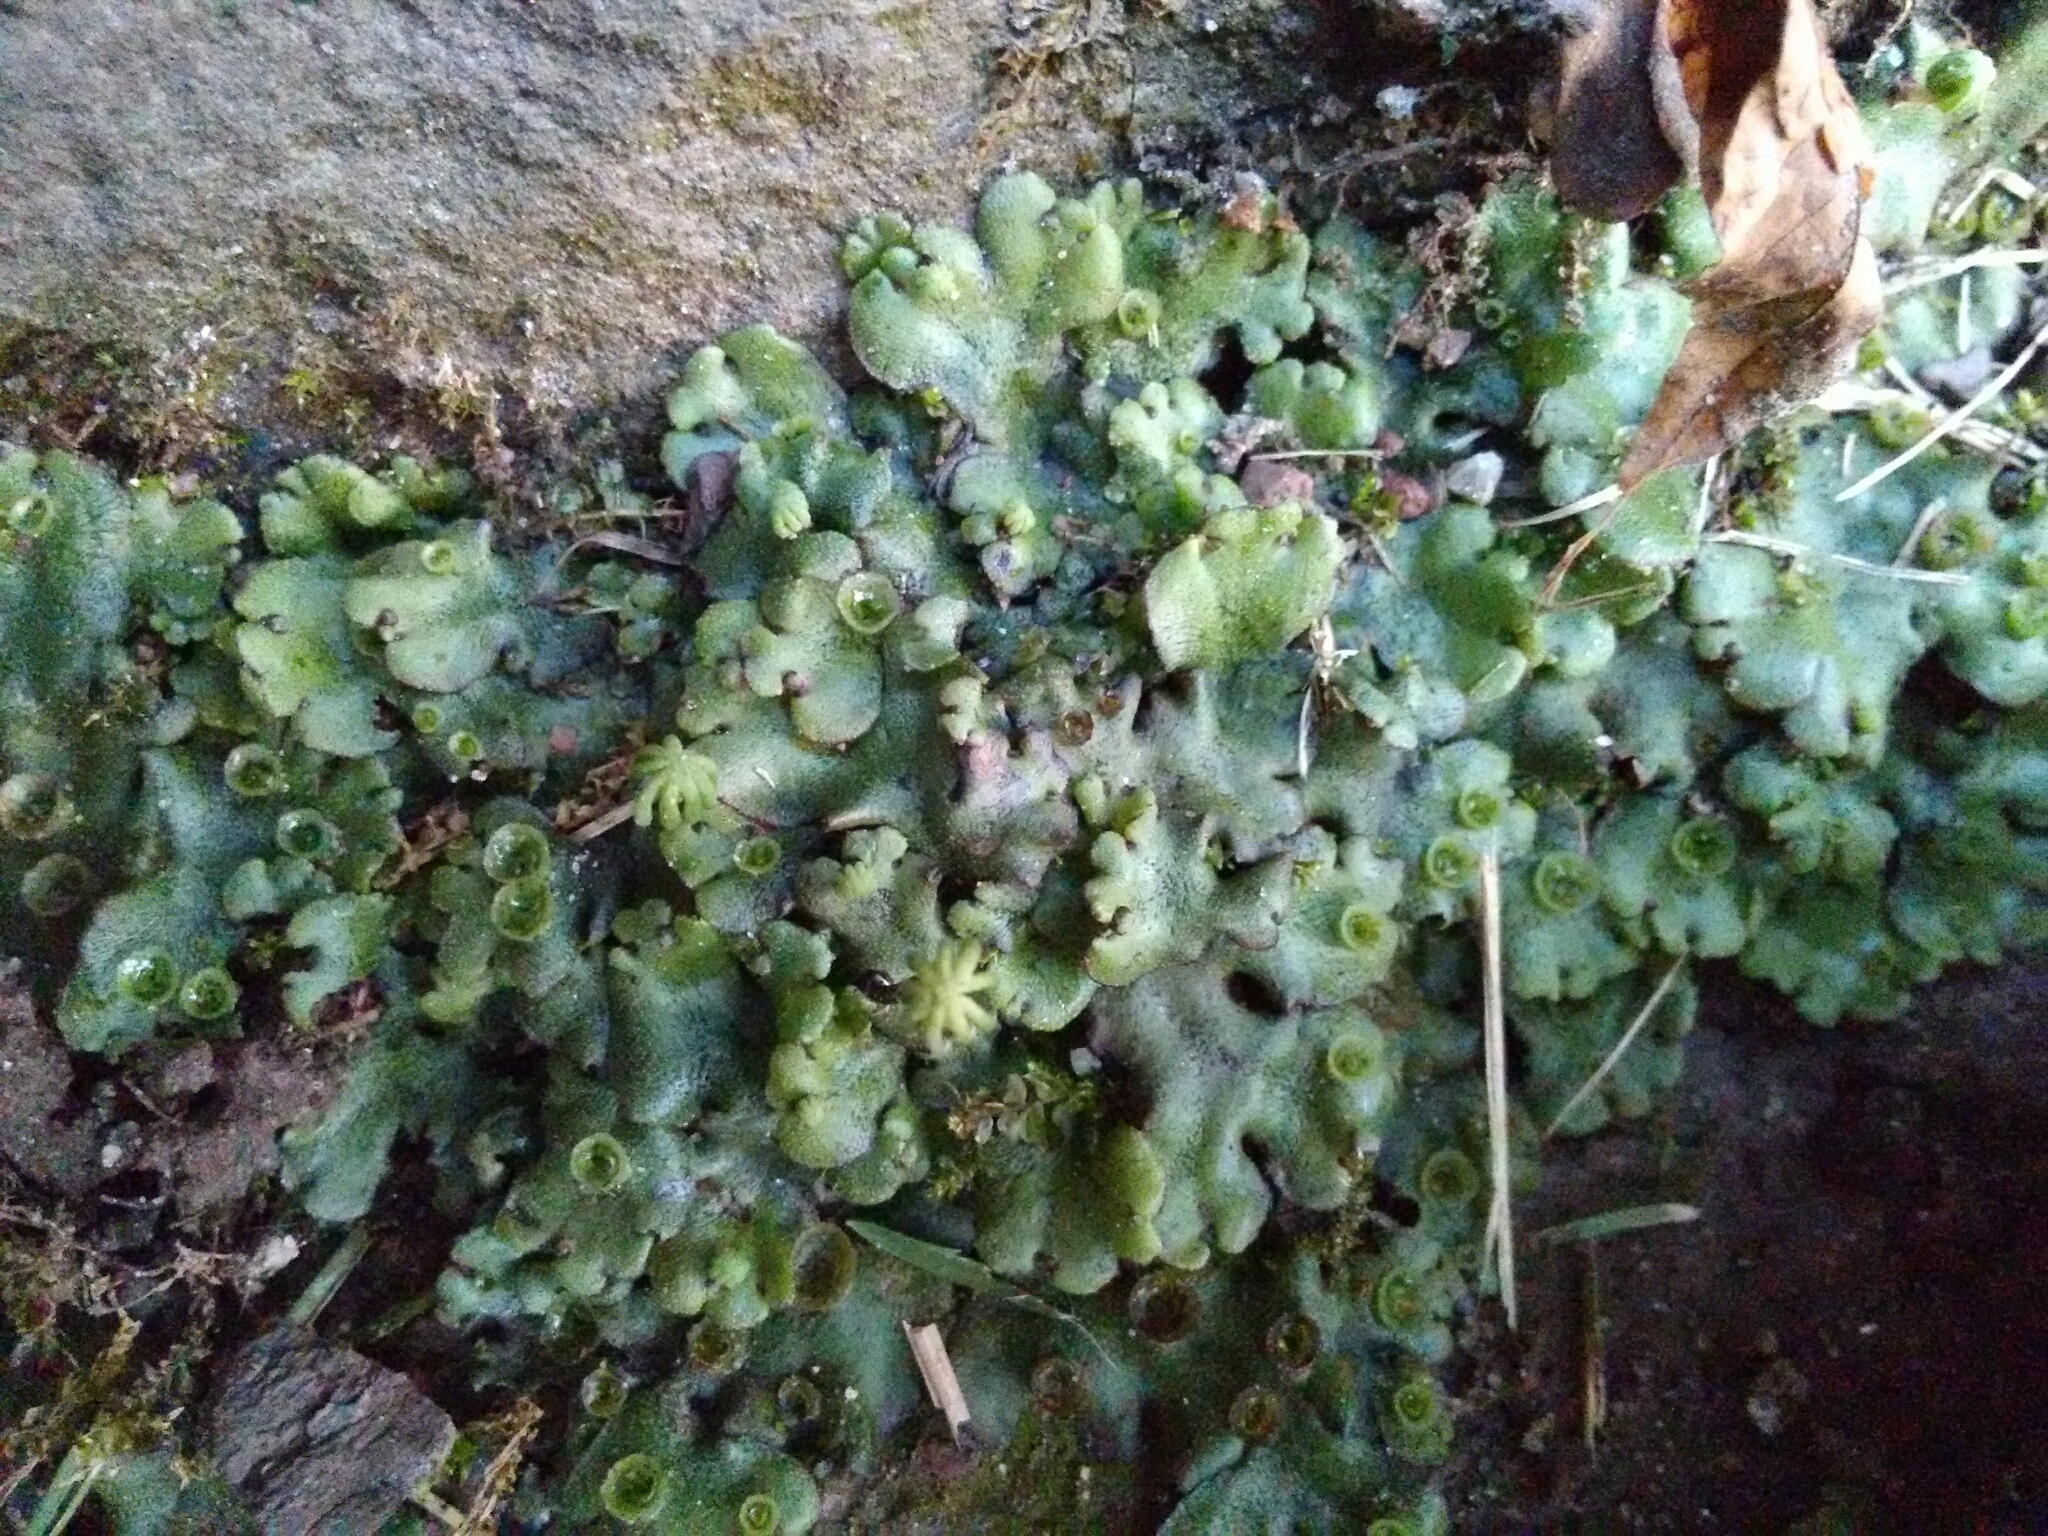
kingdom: Plantae
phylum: Marchantiophyta
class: Marchantiopsida
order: Marchantiales
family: Marchantiaceae
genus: Marchantia
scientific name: Marchantia polymorpha
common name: Common liverwort
